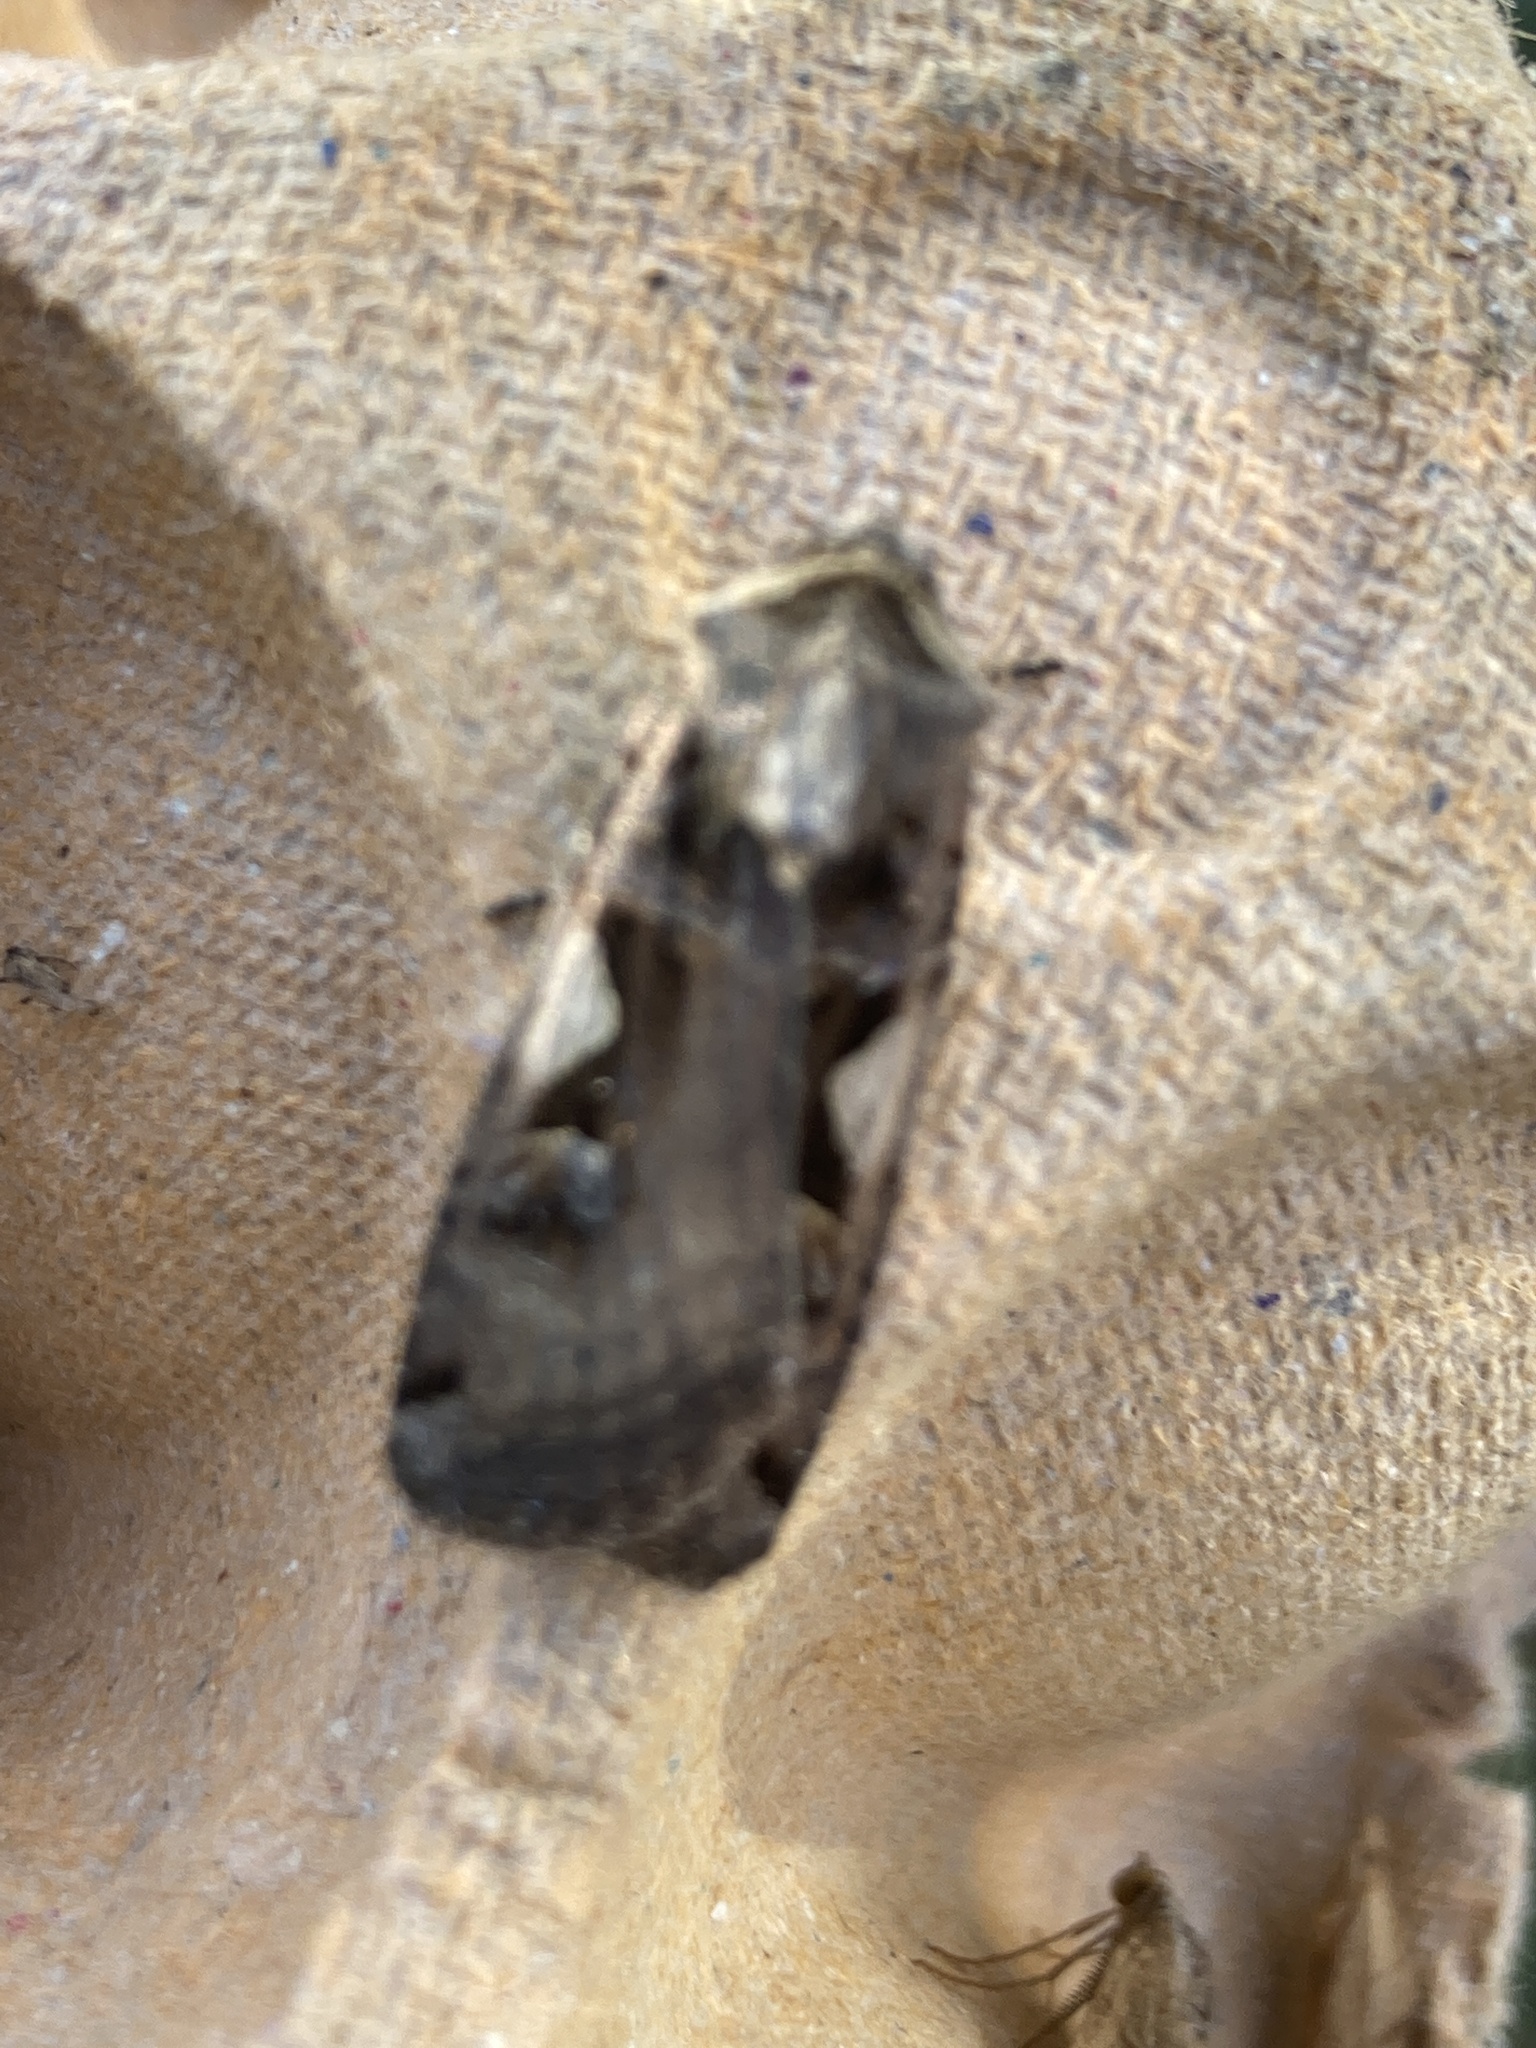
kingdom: Animalia
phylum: Arthropoda
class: Insecta
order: Lepidoptera
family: Noctuidae
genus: Xestia
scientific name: Xestia c-nigrum
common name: Setaceous hebrew character
